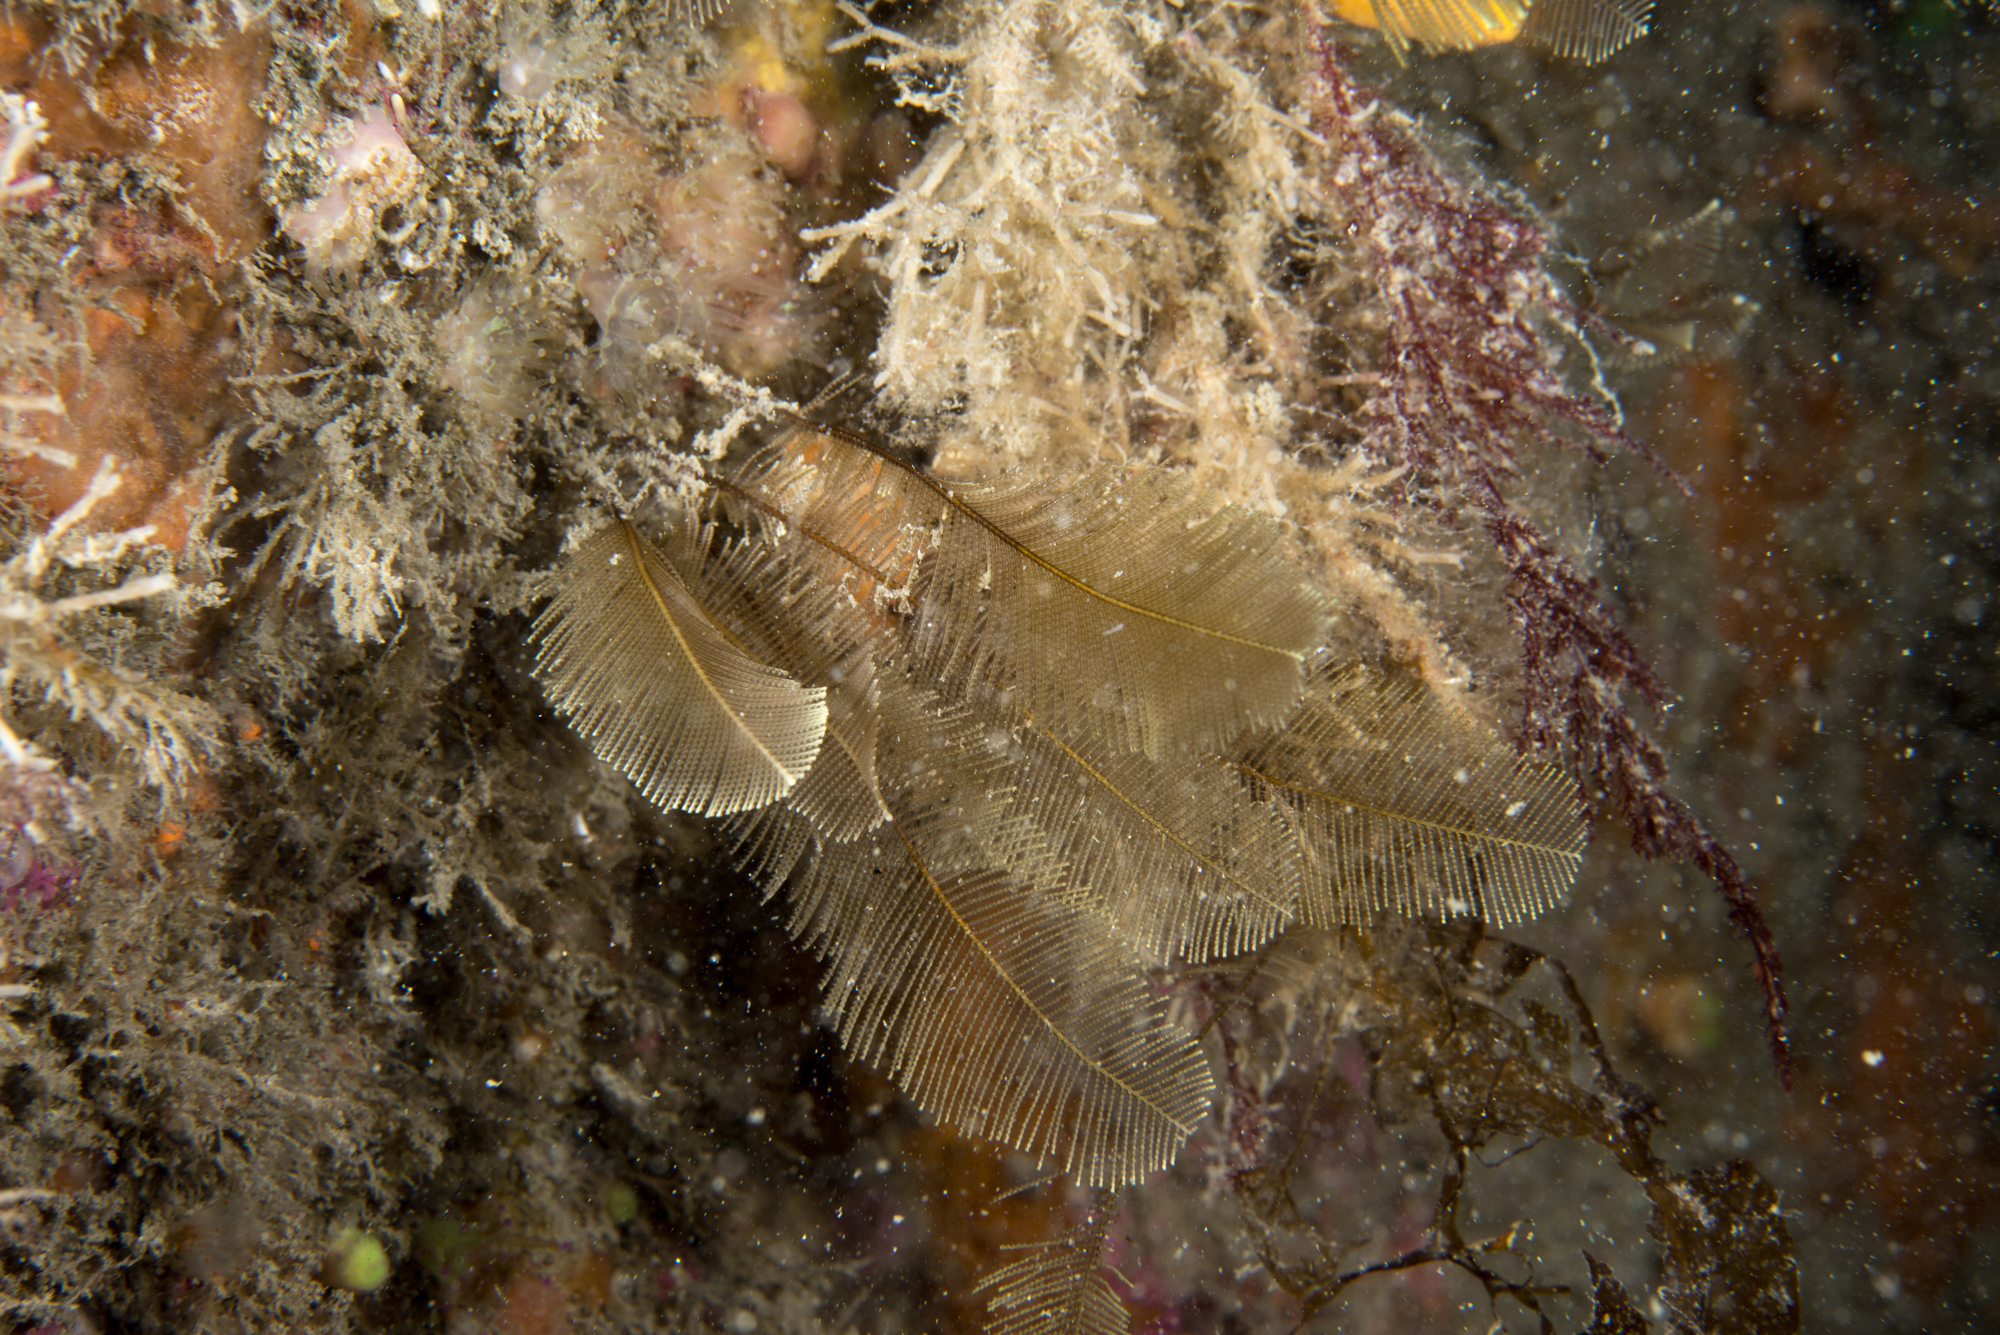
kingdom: Animalia
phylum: Cnidaria
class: Hydrozoa
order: Leptothecata
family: Aglaopheniidae
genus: Gymnangium
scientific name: Gymnangium montagui
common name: Yellow feathers
